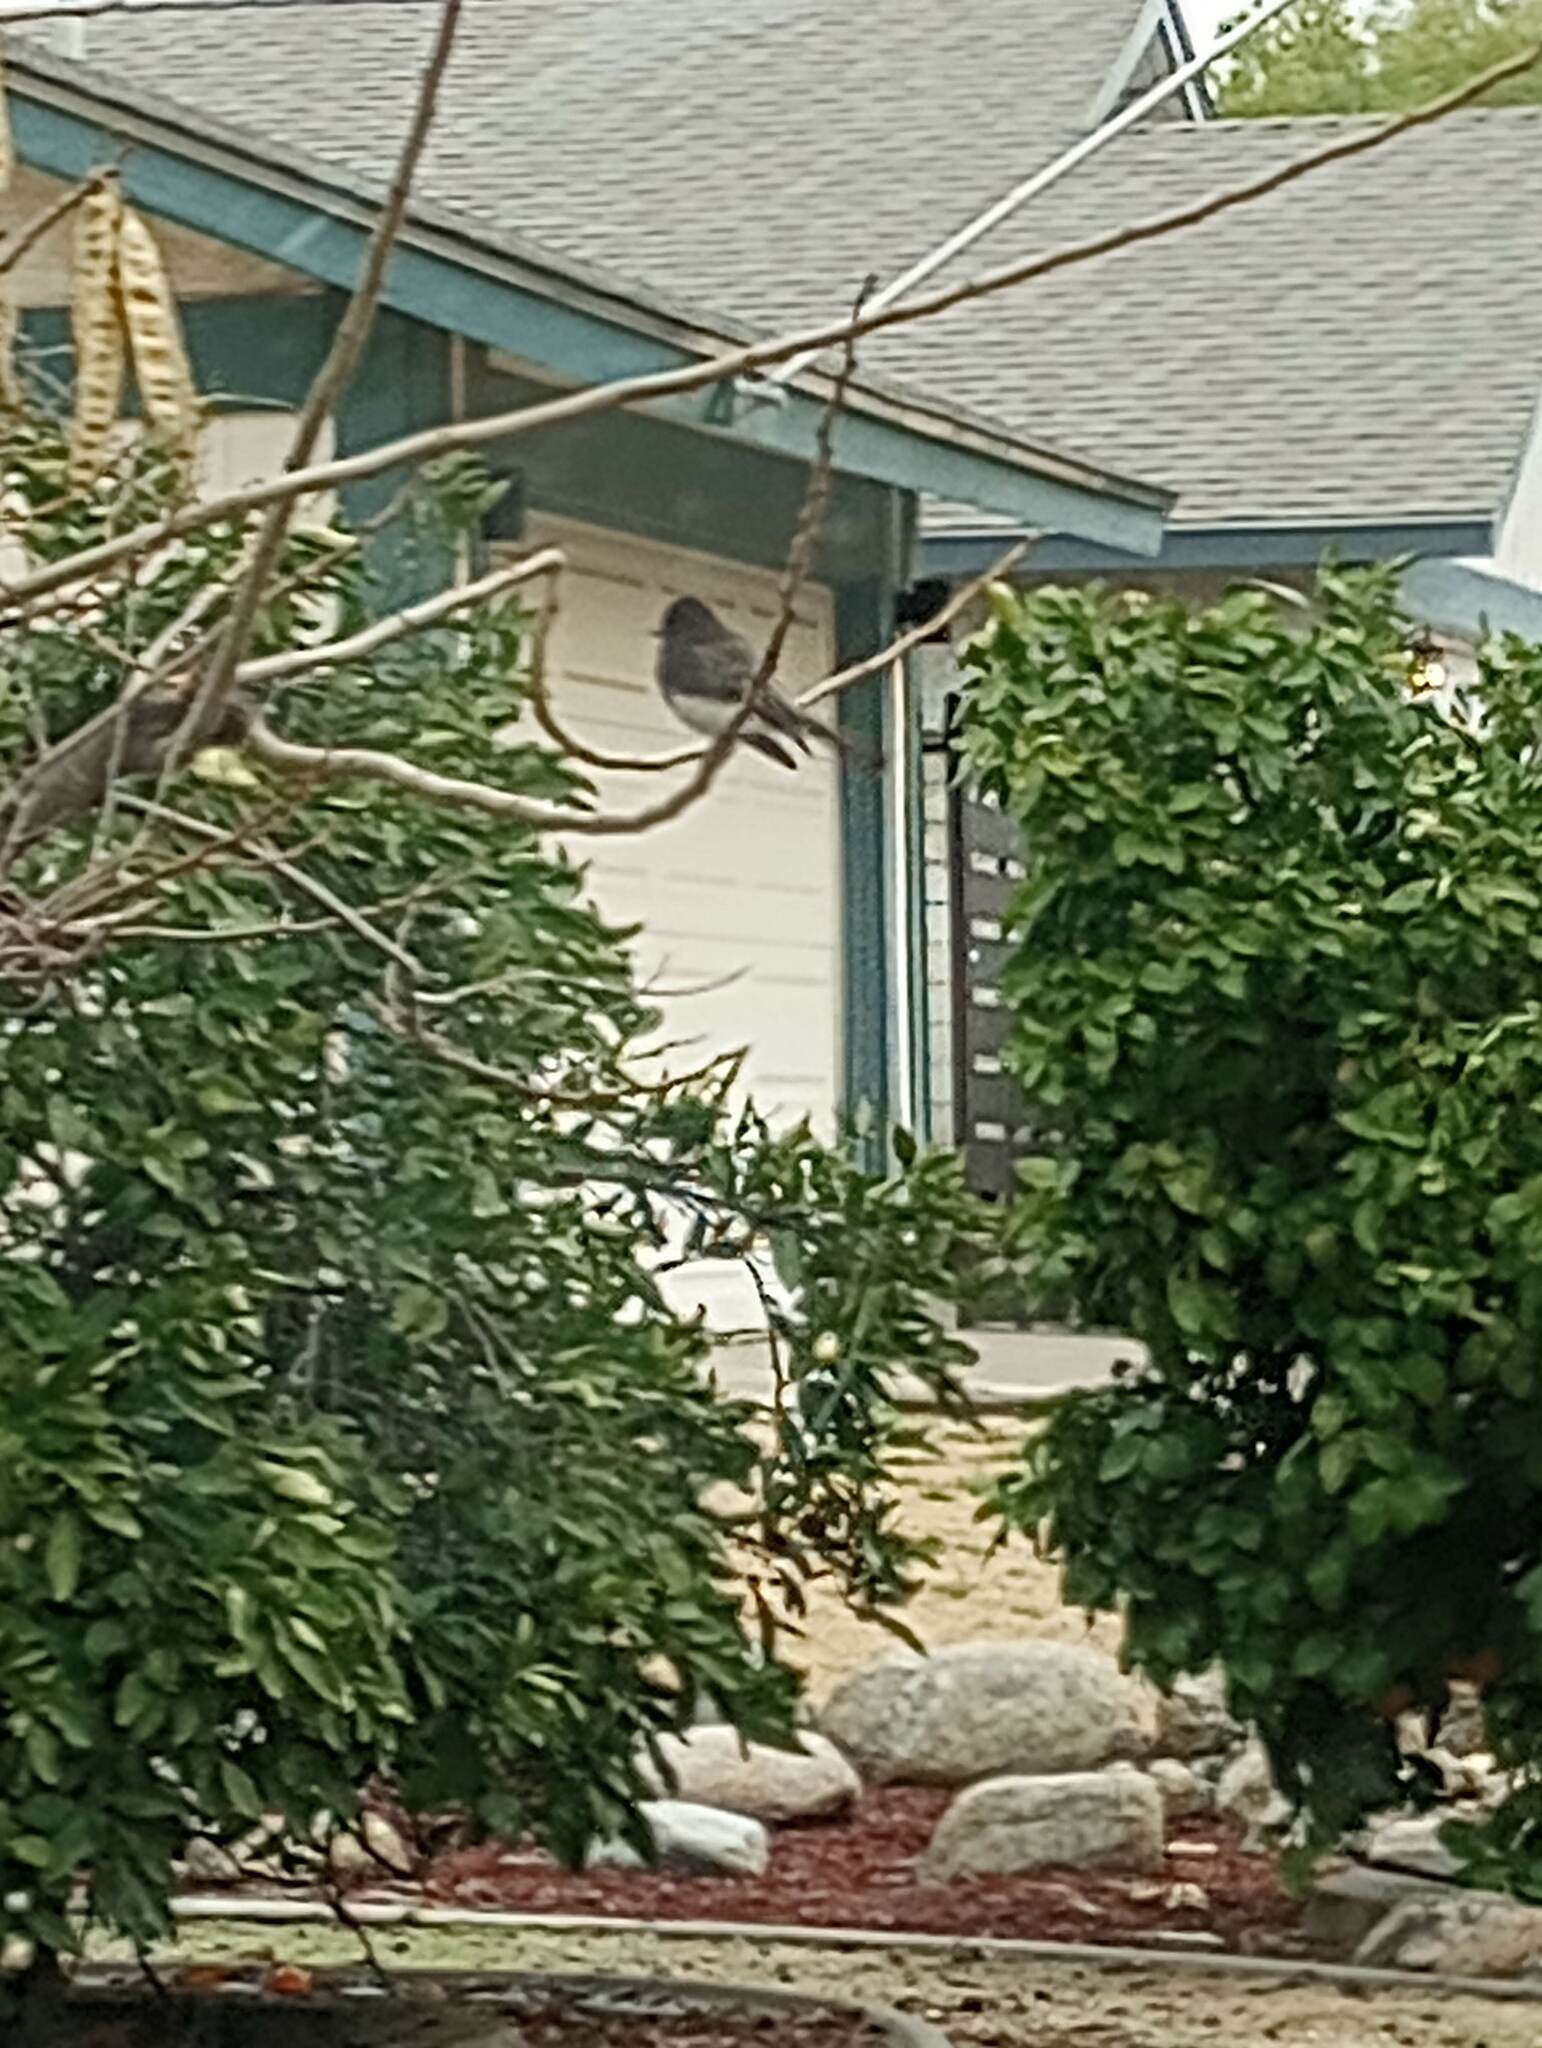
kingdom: Animalia
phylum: Chordata
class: Aves
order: Passeriformes
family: Tyrannidae
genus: Sayornis
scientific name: Sayornis nigricans
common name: Black phoebe
